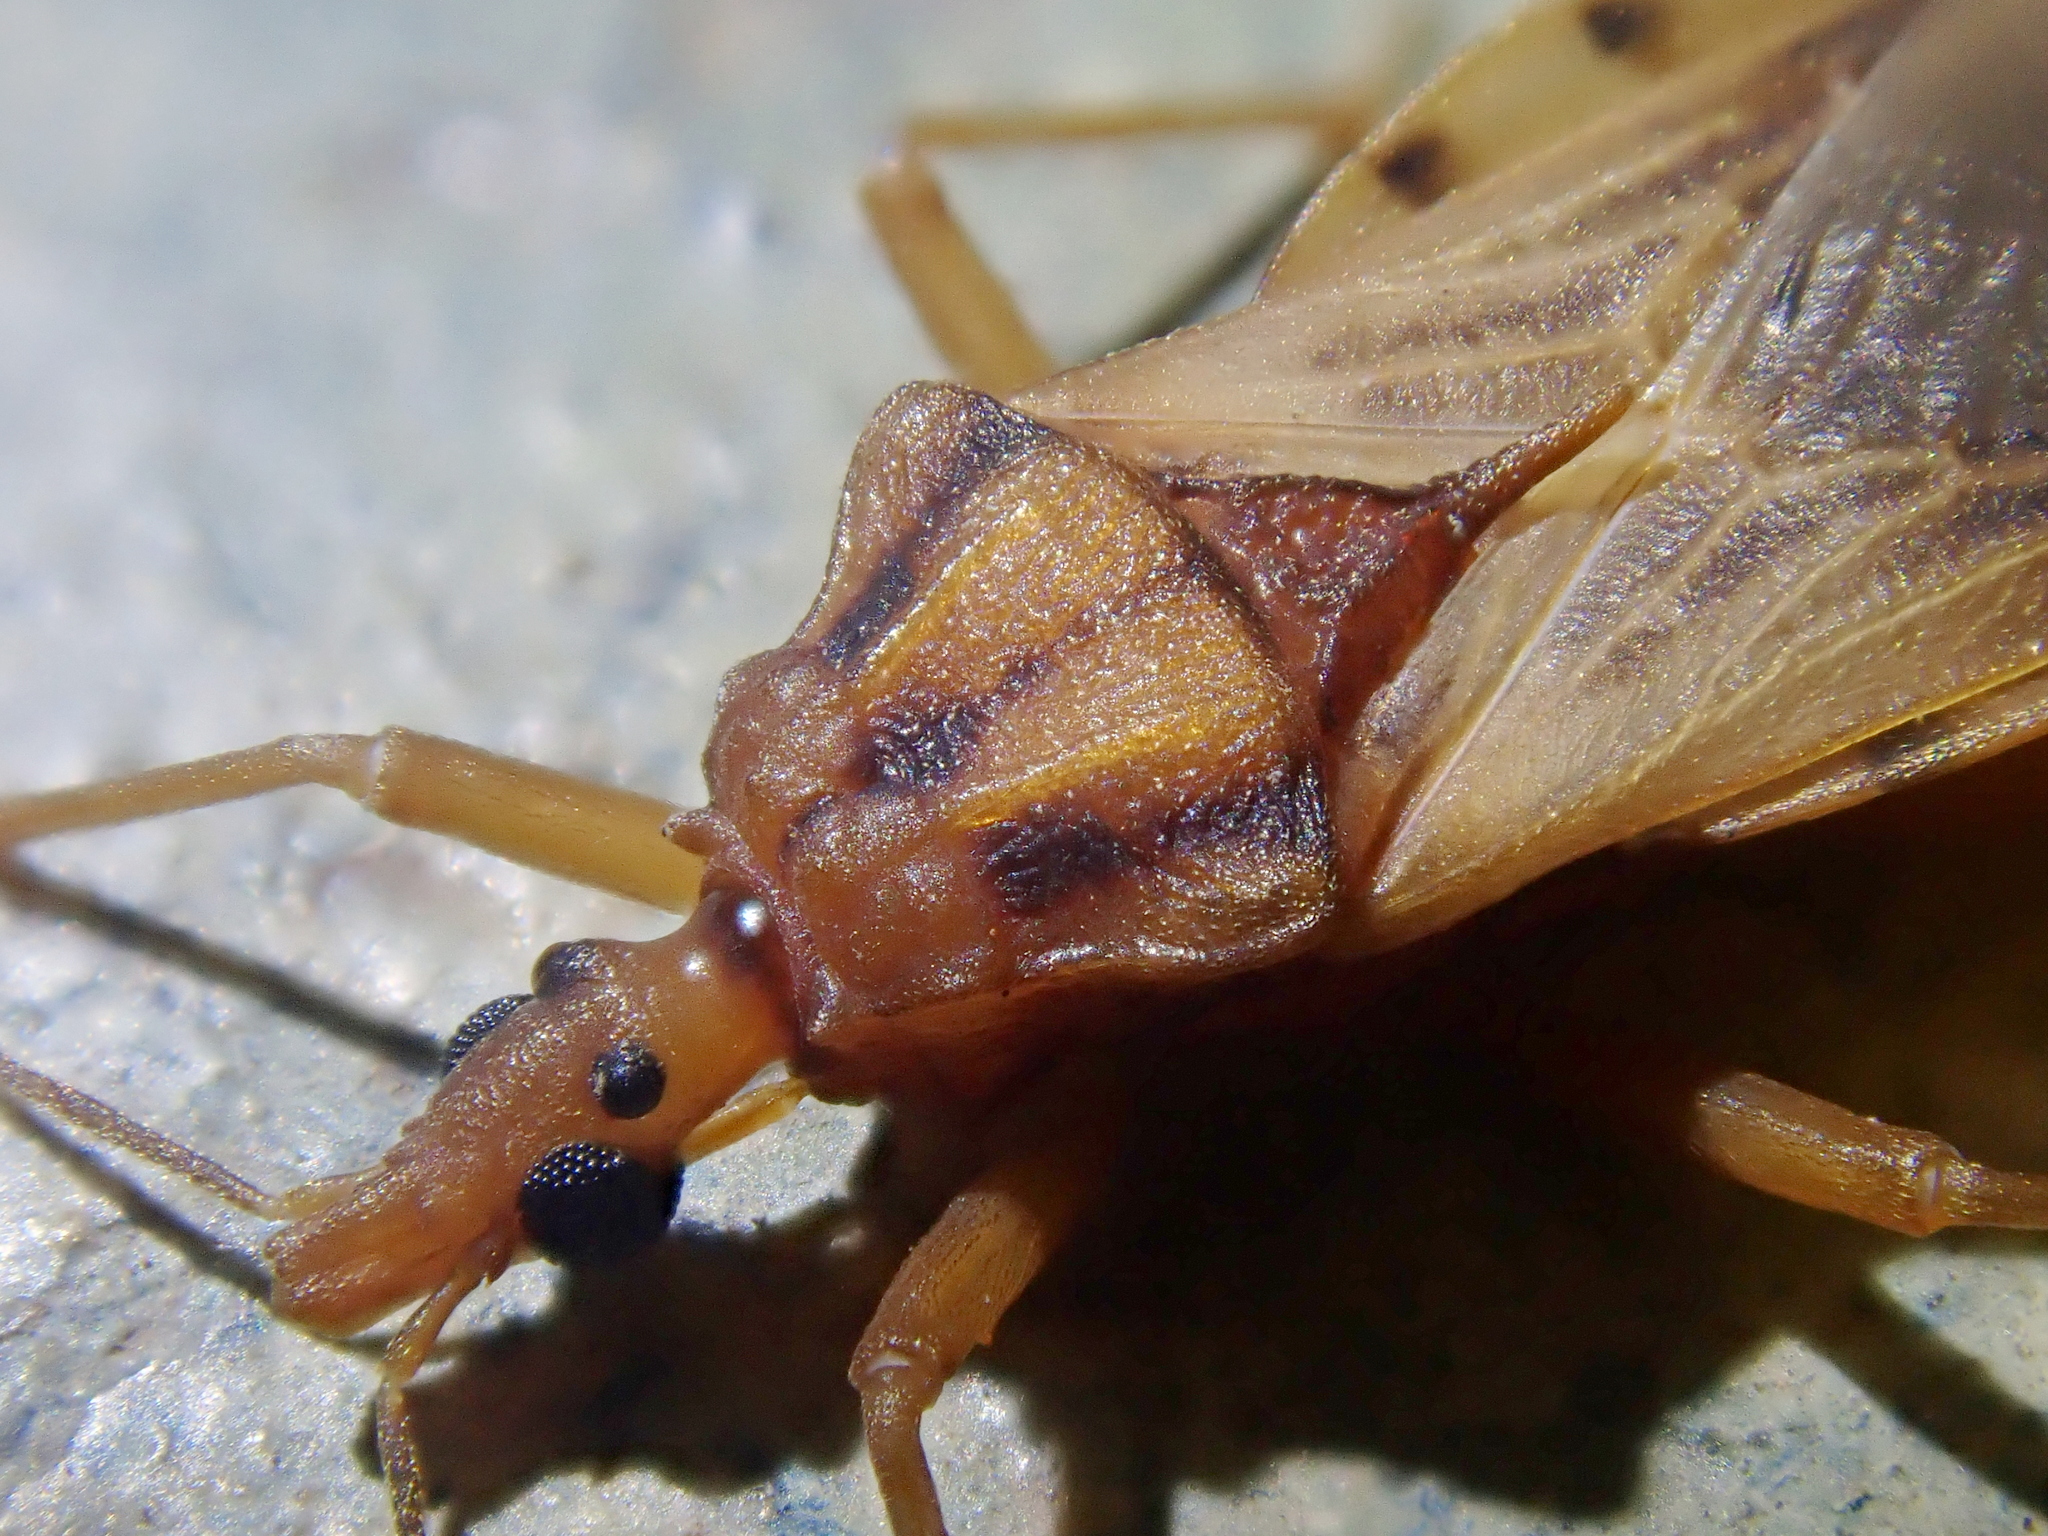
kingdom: Animalia
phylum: Arthropoda
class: Insecta
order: Hemiptera
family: Reduviidae
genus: Panstrongylus
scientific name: Panstrongylus lenti
